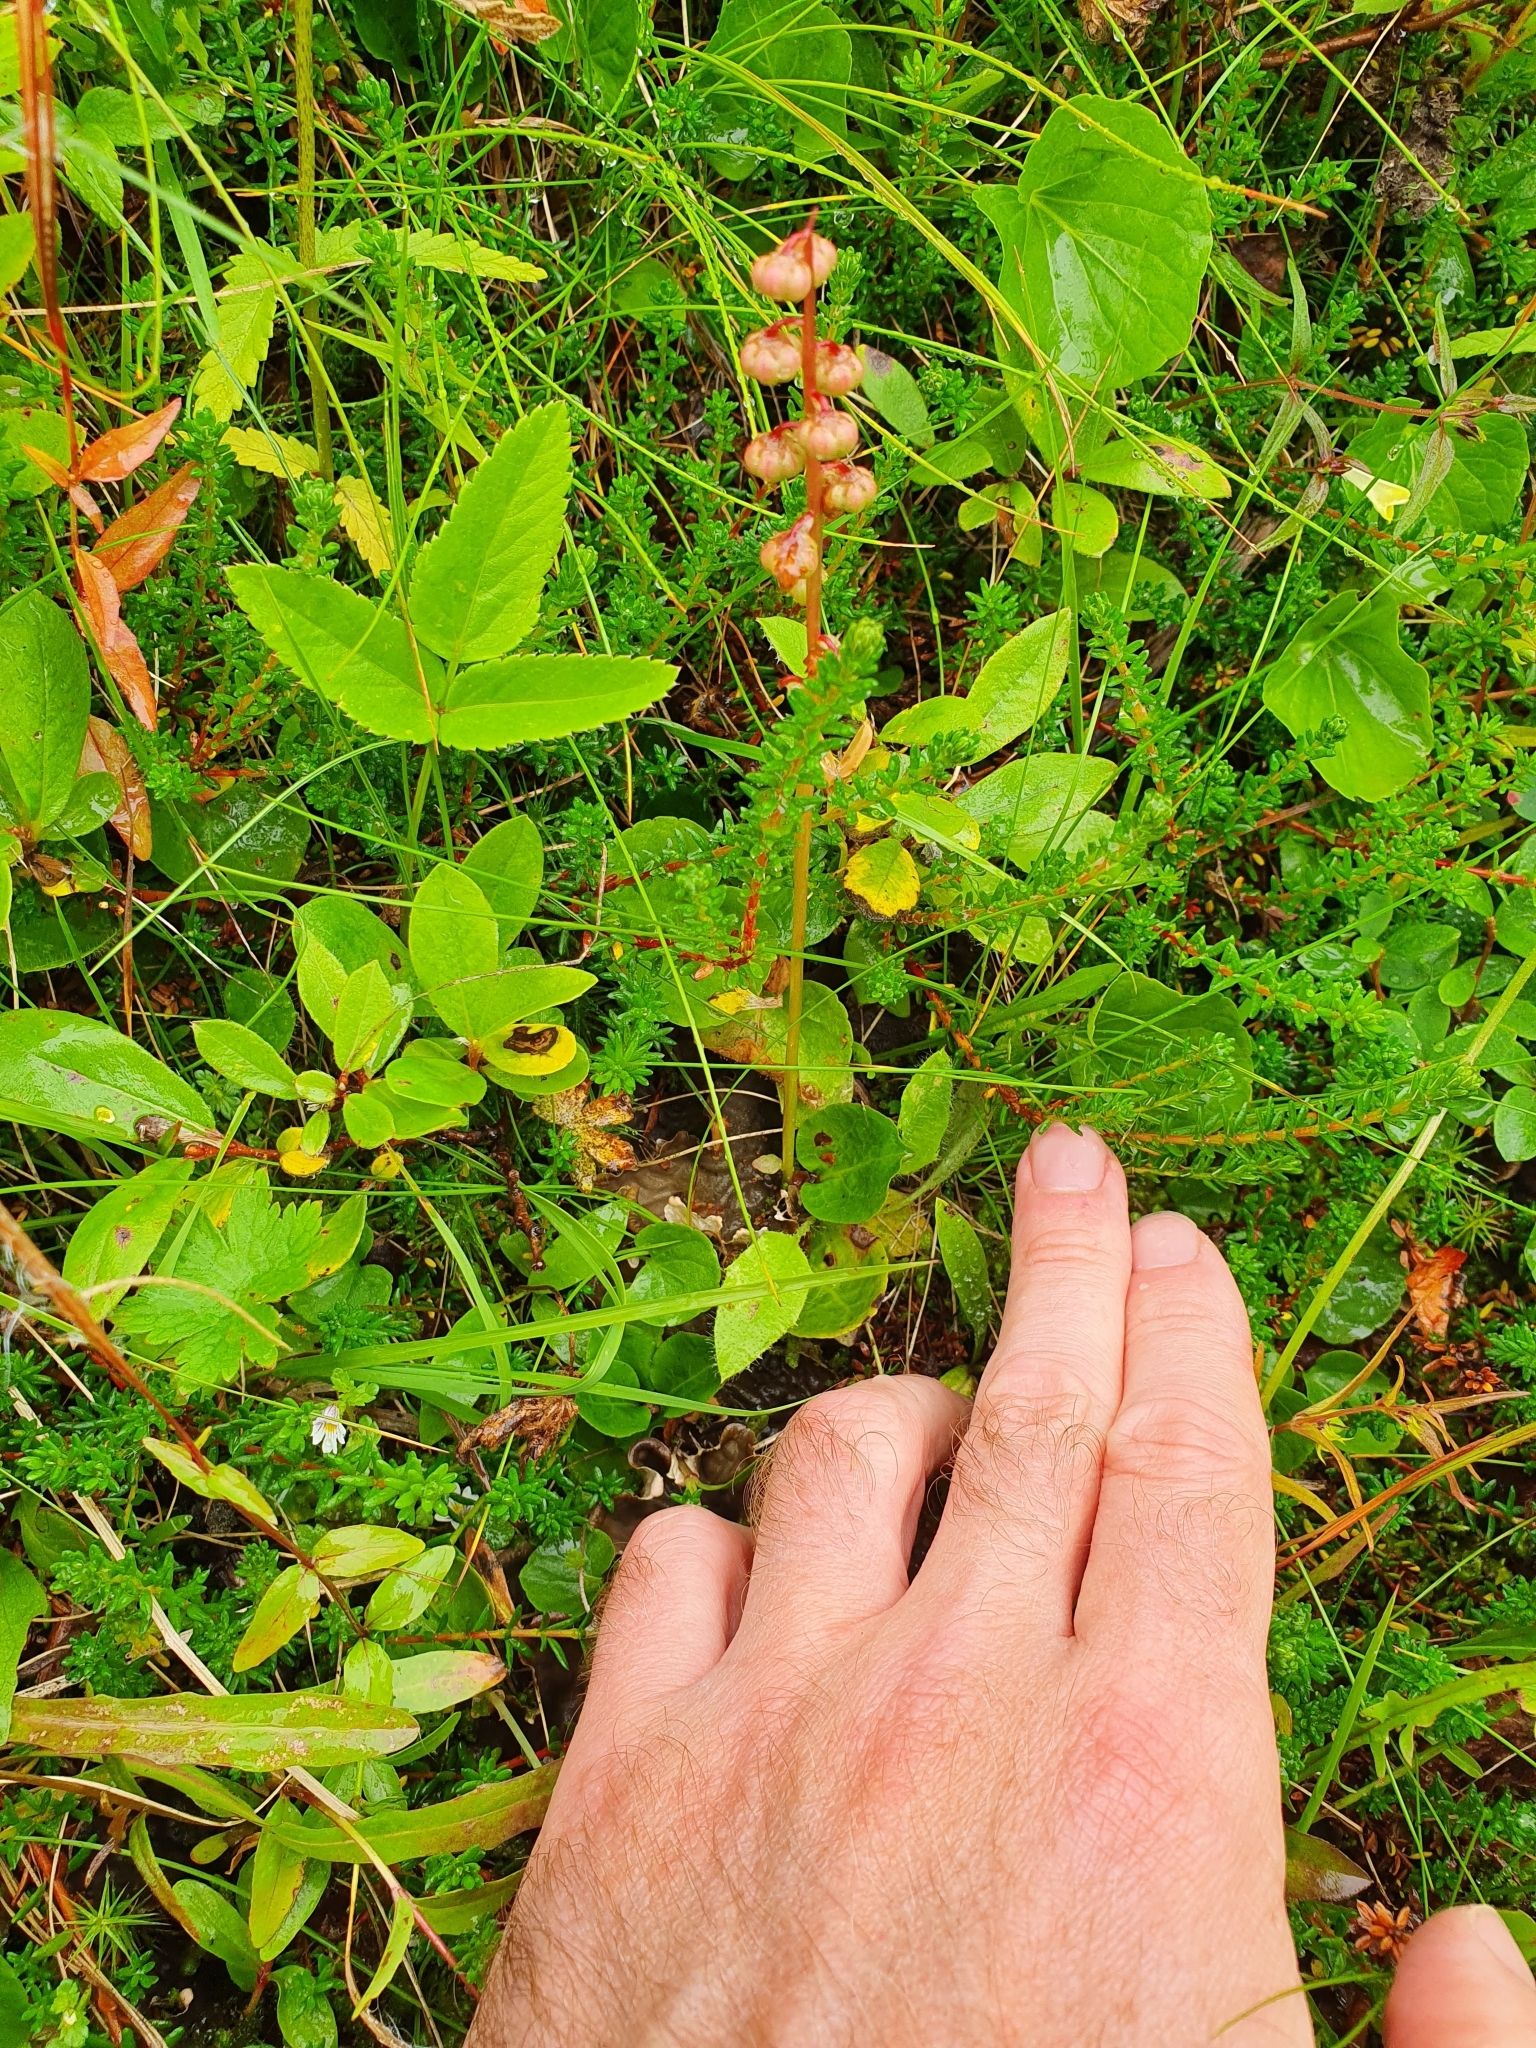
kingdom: Plantae
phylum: Tracheophyta
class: Magnoliopsida
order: Ericales
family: Ericaceae
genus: Pyrola
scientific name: Pyrola minor
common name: Common wintergreen
